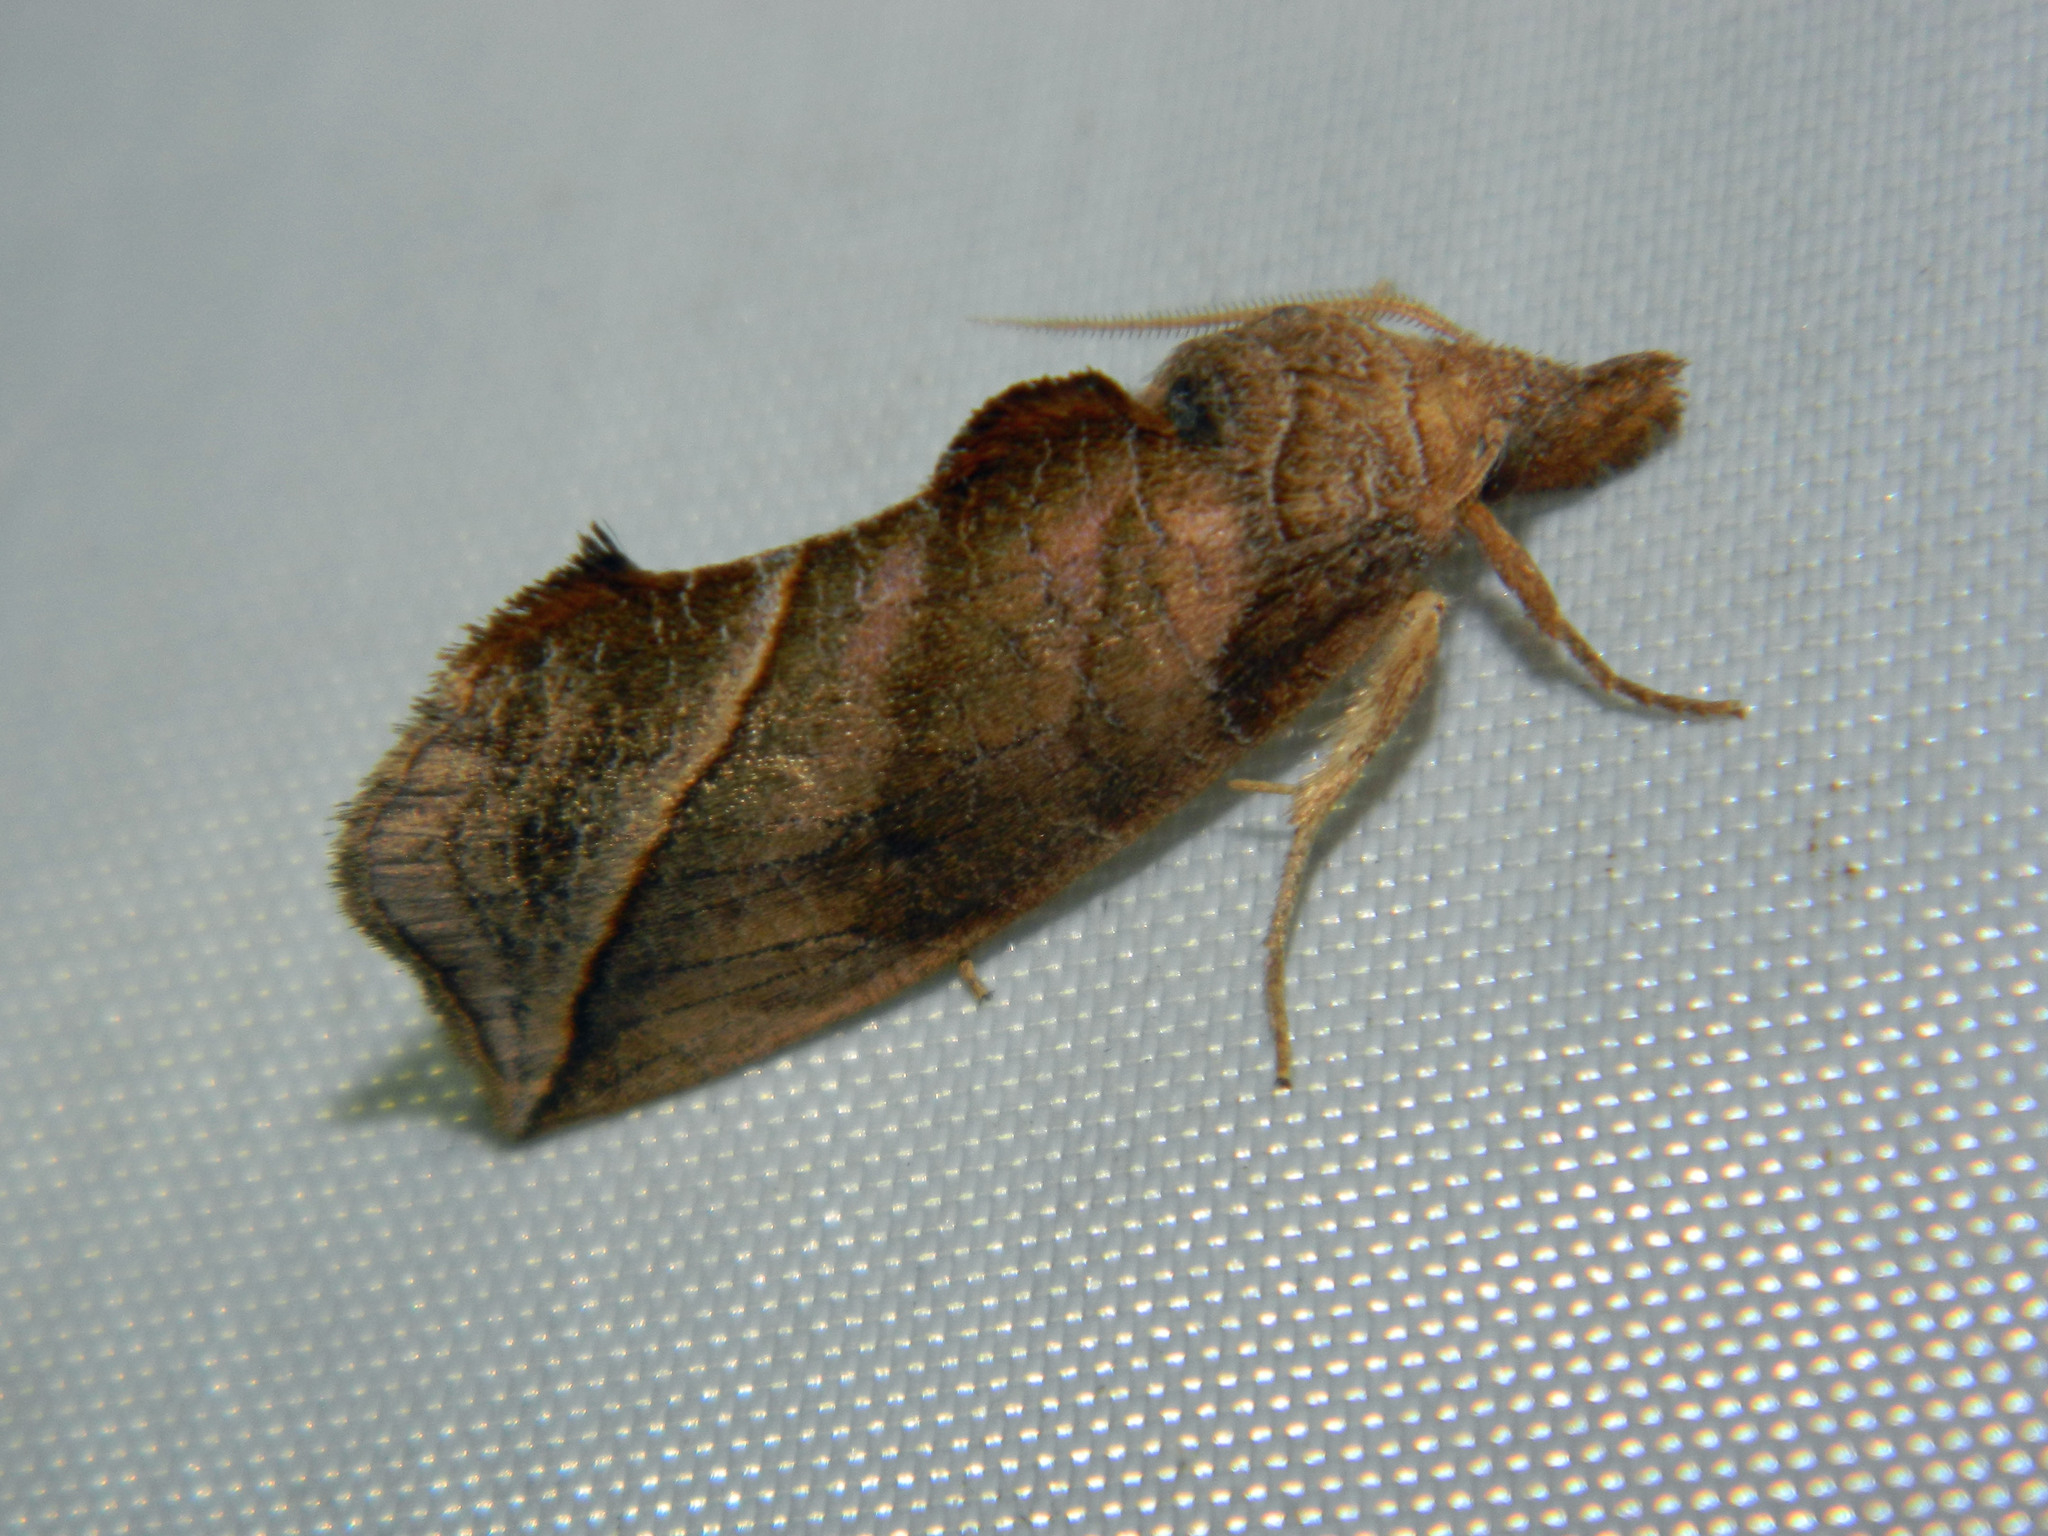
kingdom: Animalia
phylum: Arthropoda
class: Insecta
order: Lepidoptera
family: Erebidae
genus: Calyptra
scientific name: Calyptra canadensis
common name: Canadian owlet
